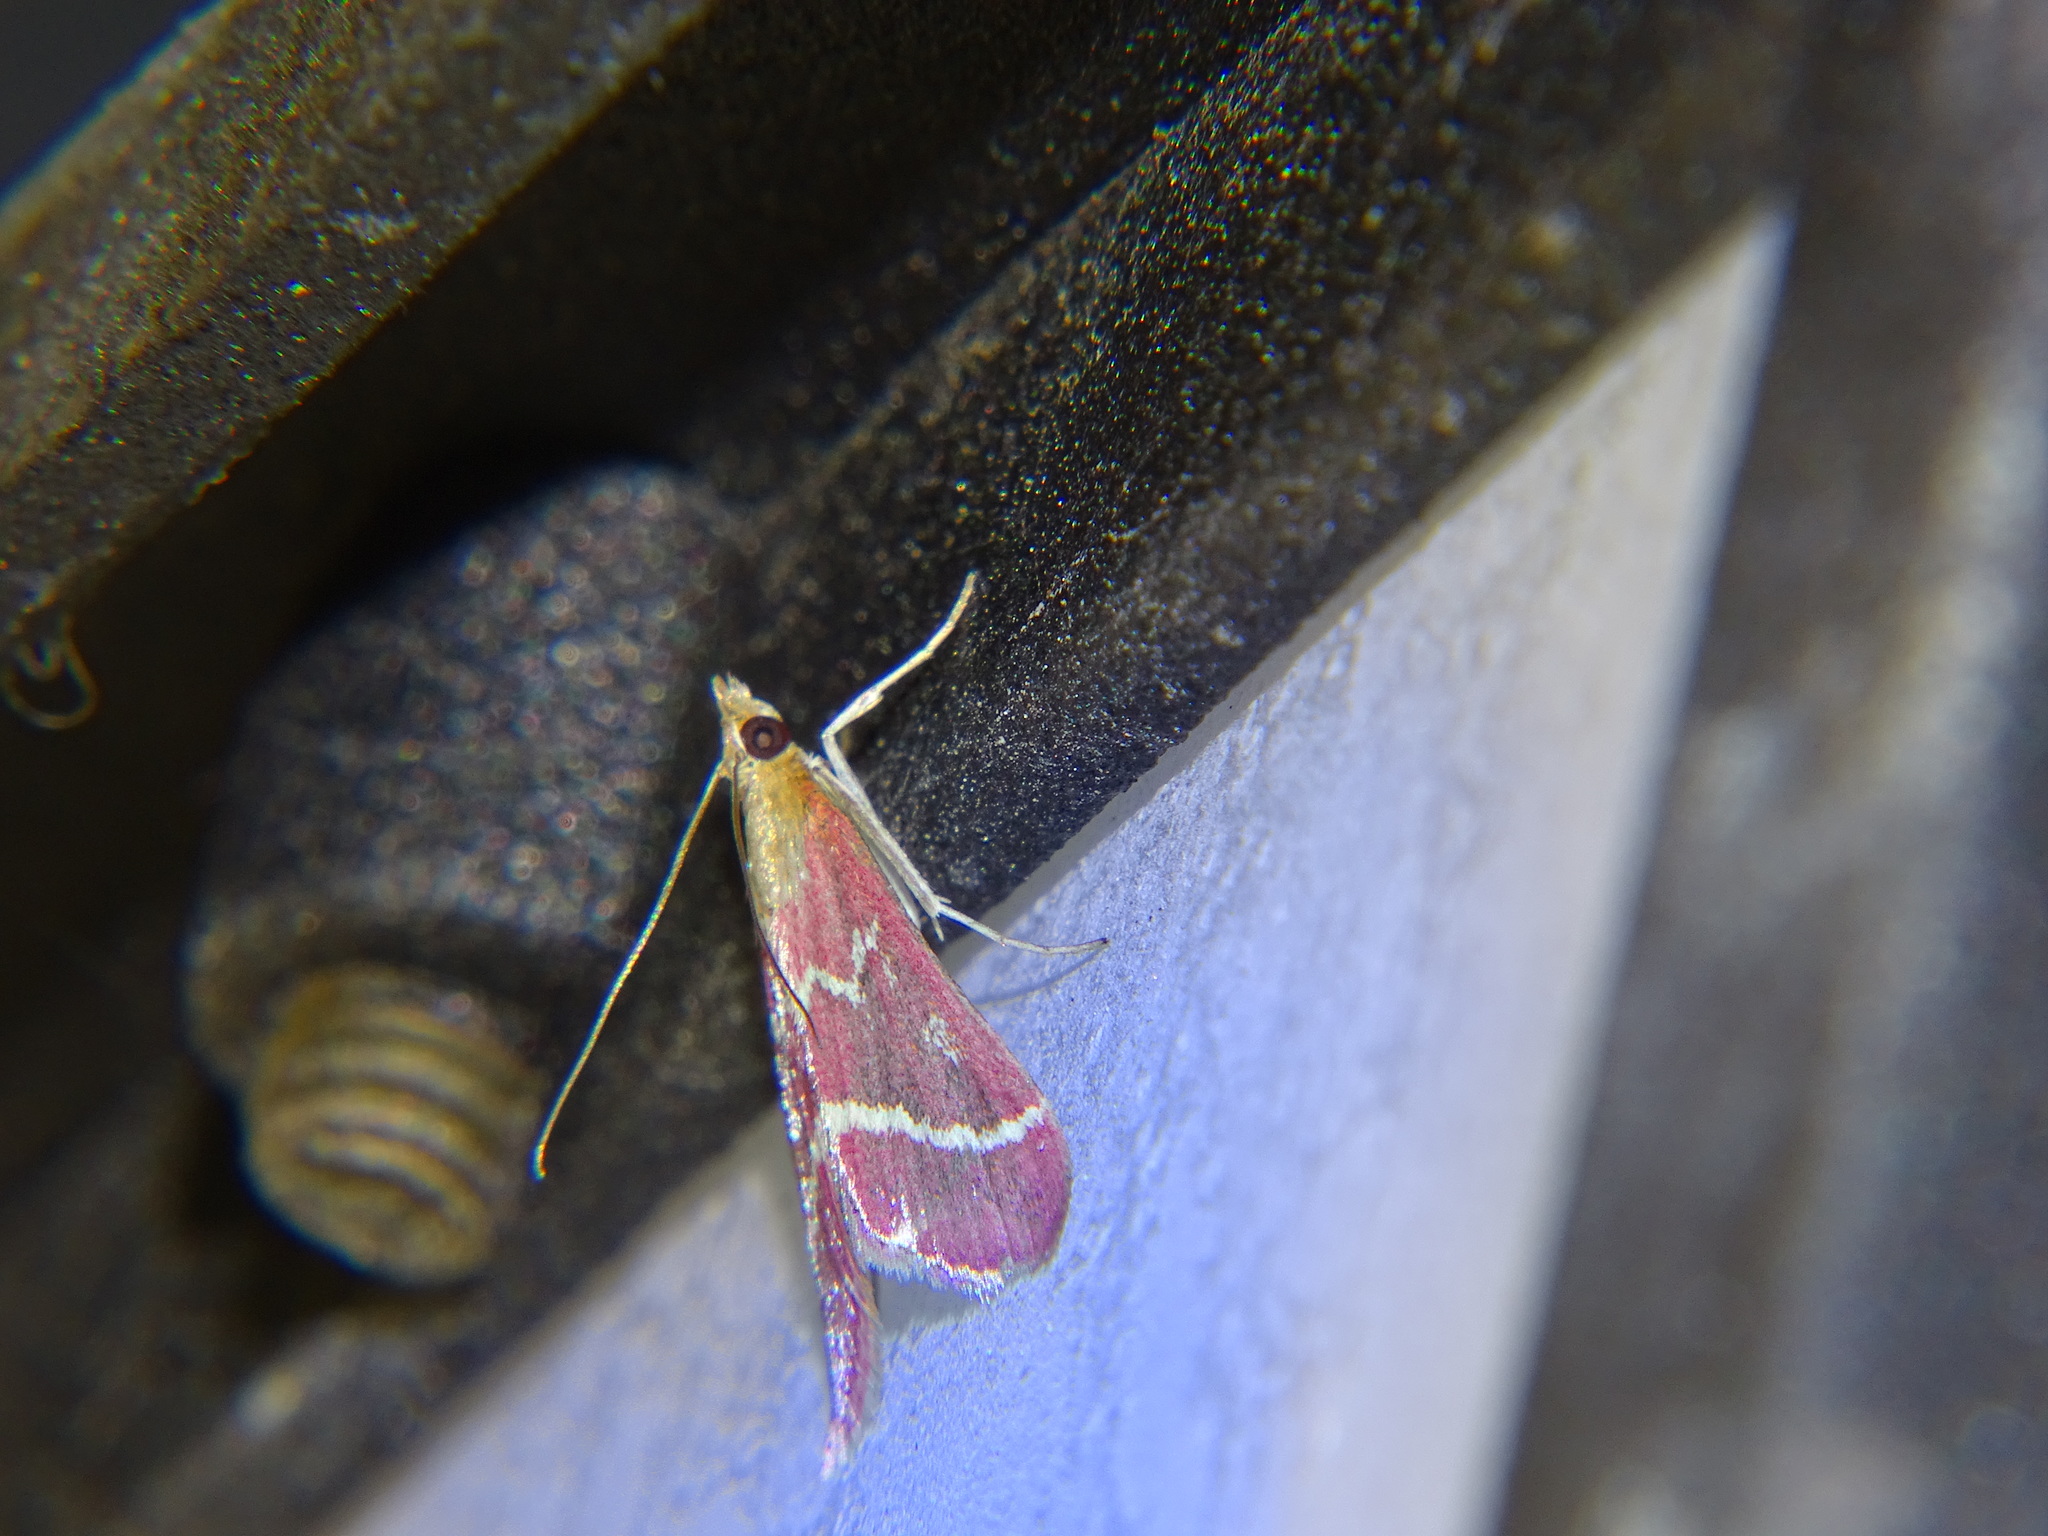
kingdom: Animalia
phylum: Arthropoda
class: Insecta
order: Lepidoptera
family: Crambidae
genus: Pyrausta
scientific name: Pyrausta volupialis
